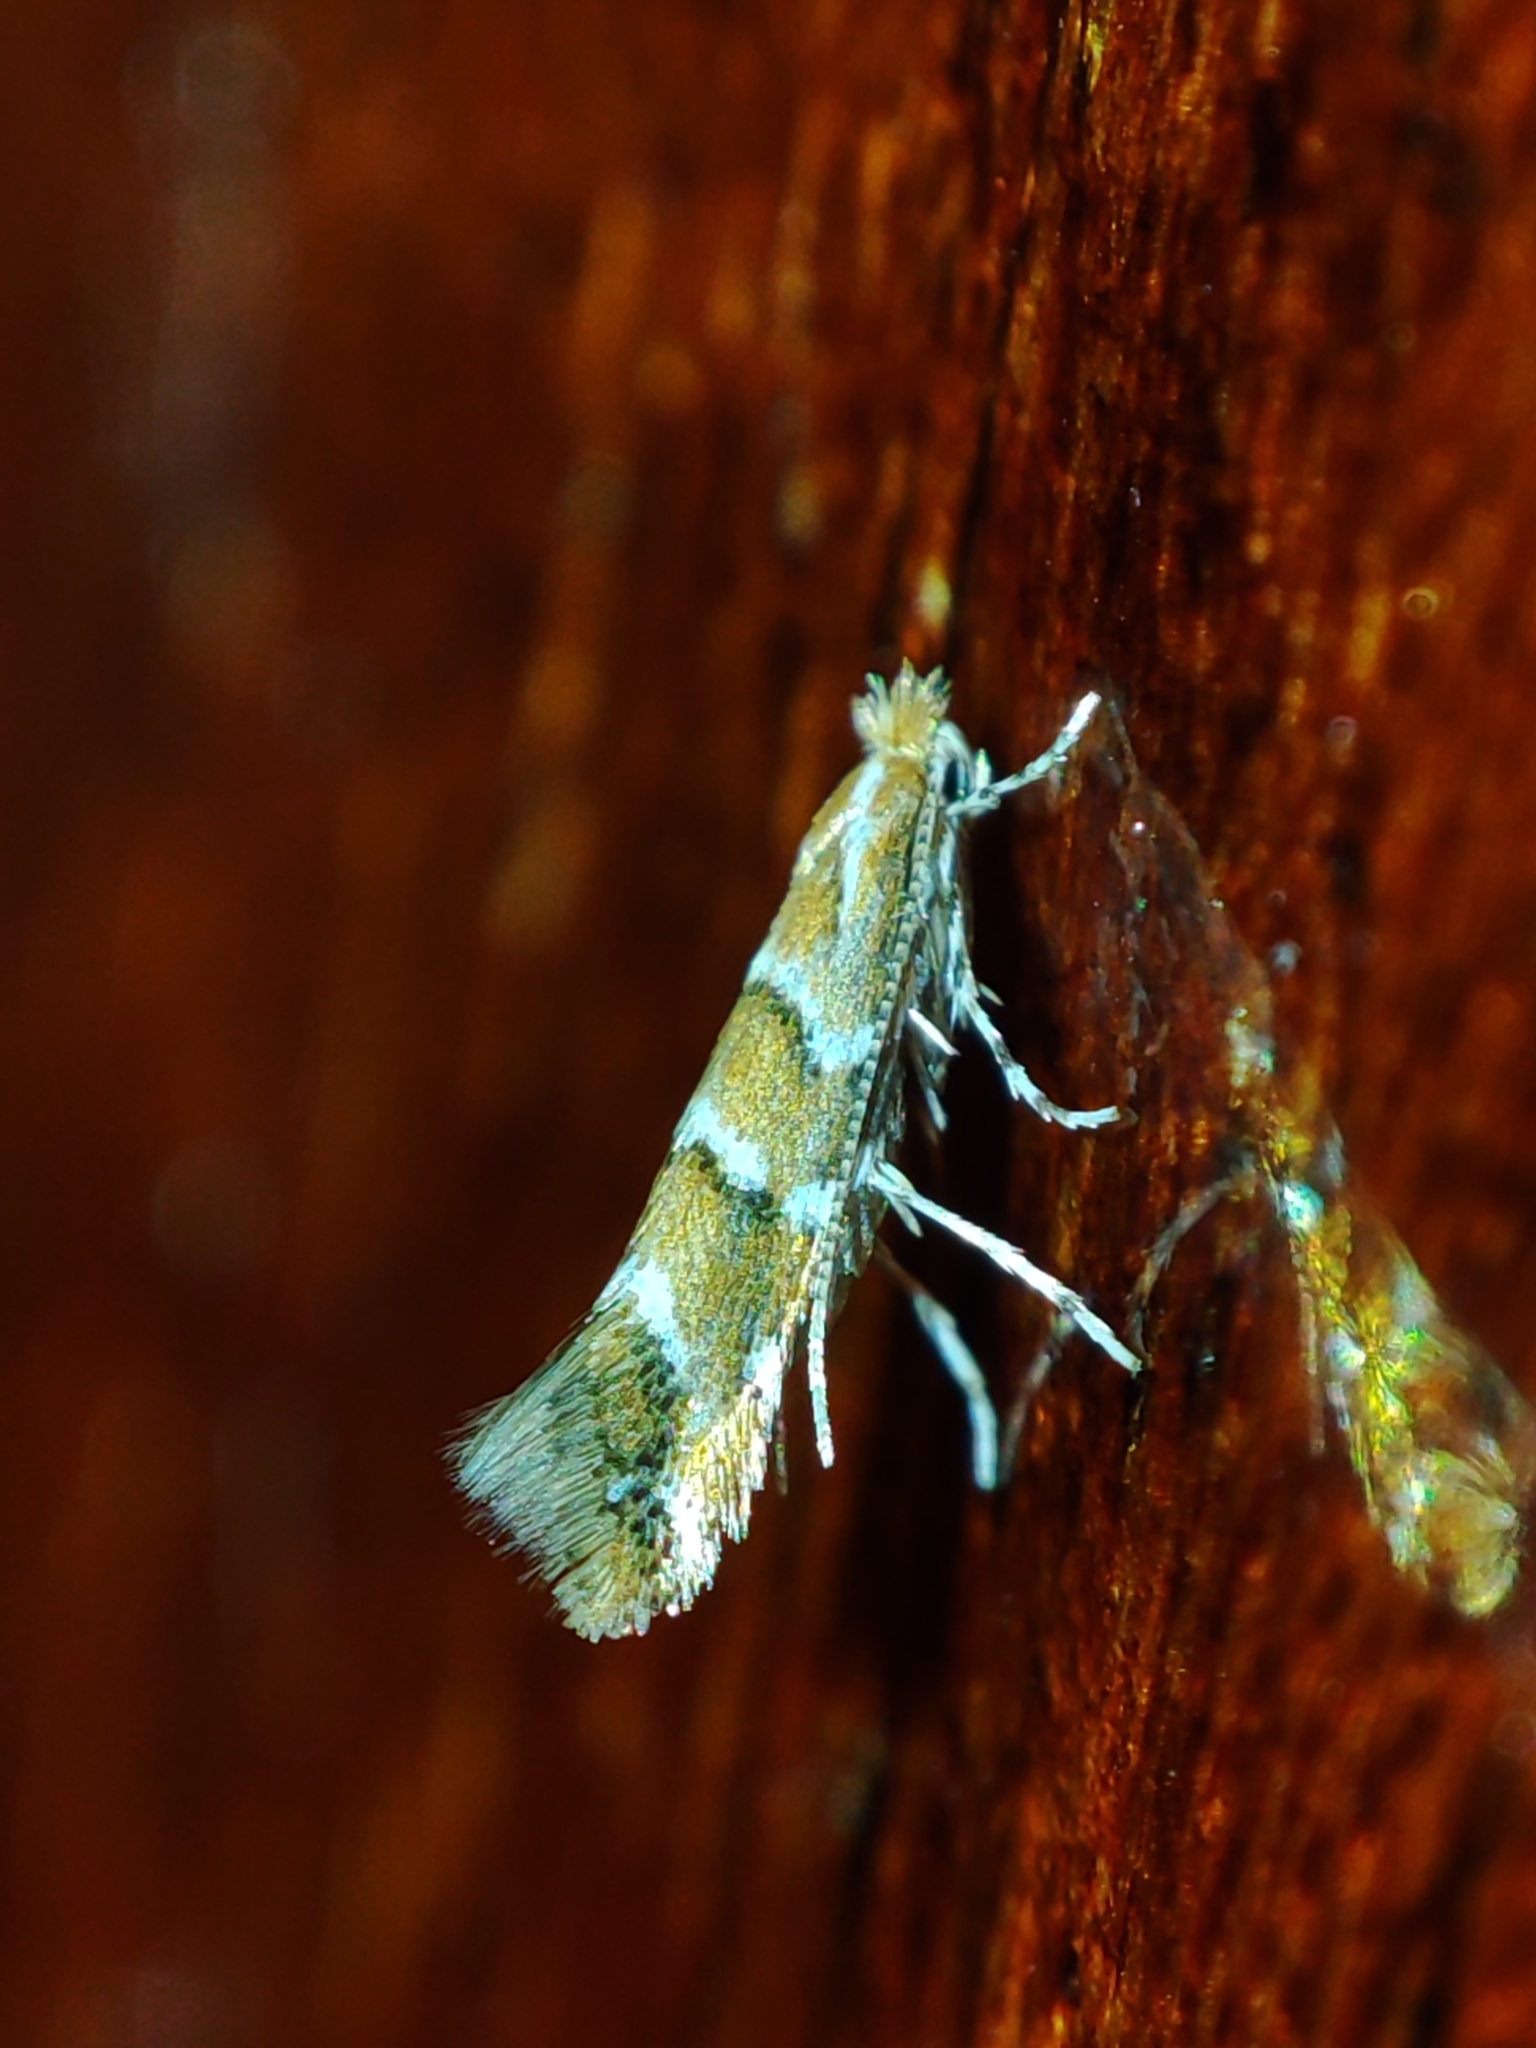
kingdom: Animalia
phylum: Arthropoda
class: Insecta
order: Lepidoptera
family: Gracillariidae
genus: Cameraria
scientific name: Cameraria ohridella
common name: Horse-chestnut leaf-miner
